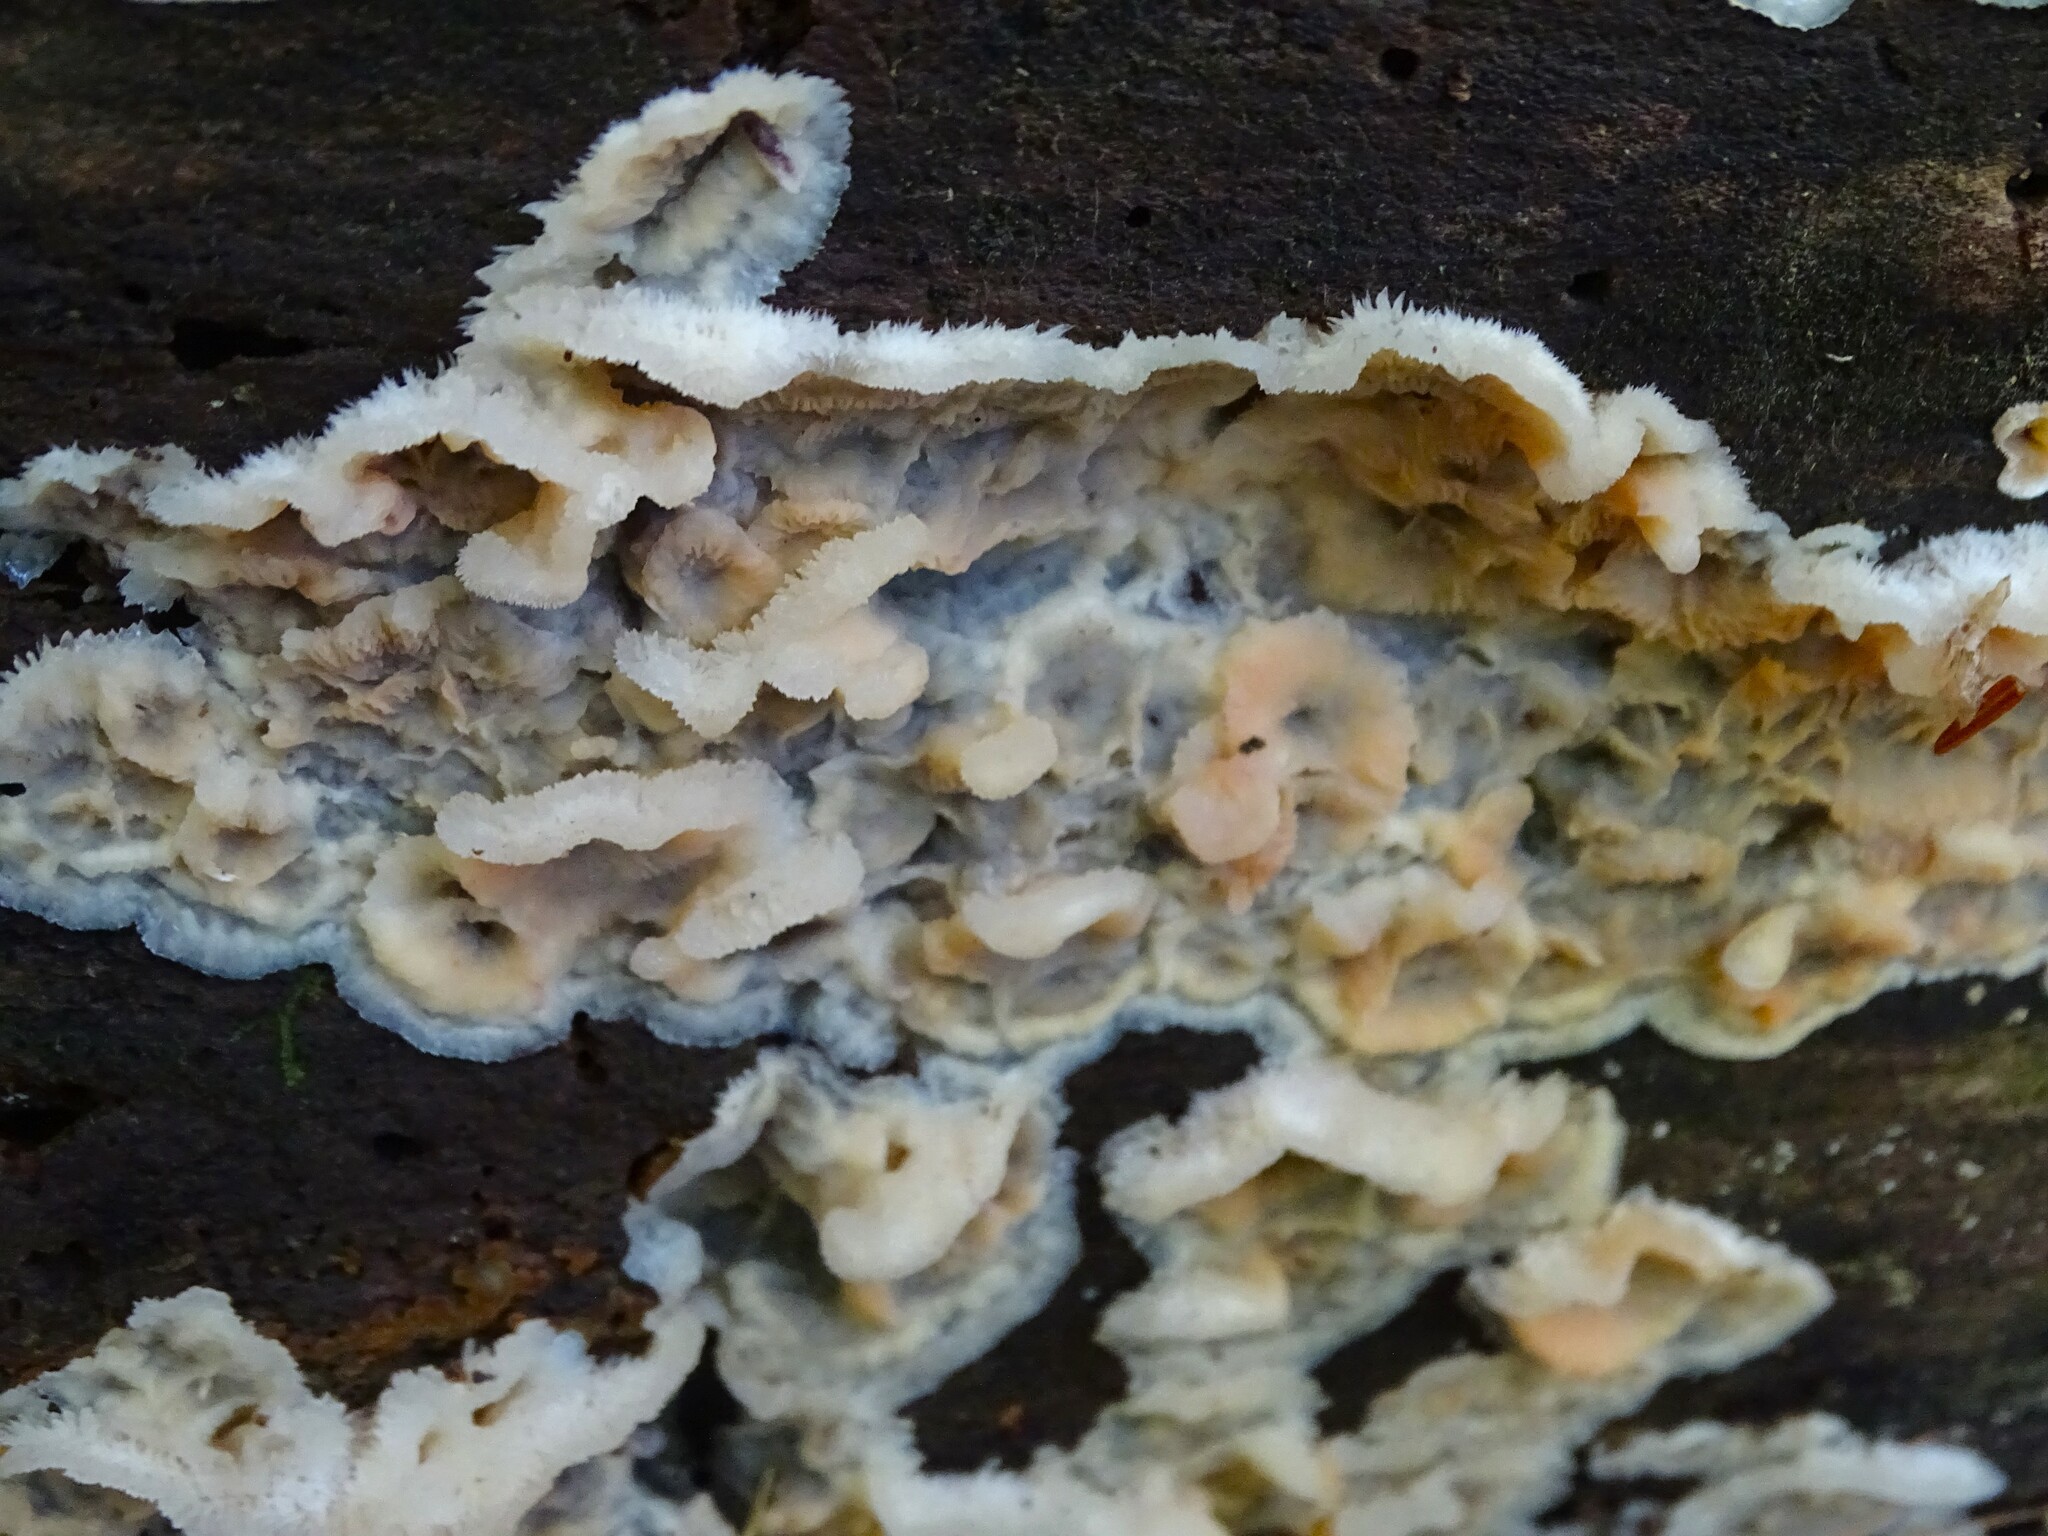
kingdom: Fungi
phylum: Basidiomycota
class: Agaricomycetes
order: Polyporales
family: Meruliaceae
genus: Phlebia
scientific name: Phlebia tremellosa
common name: Jelly rot
